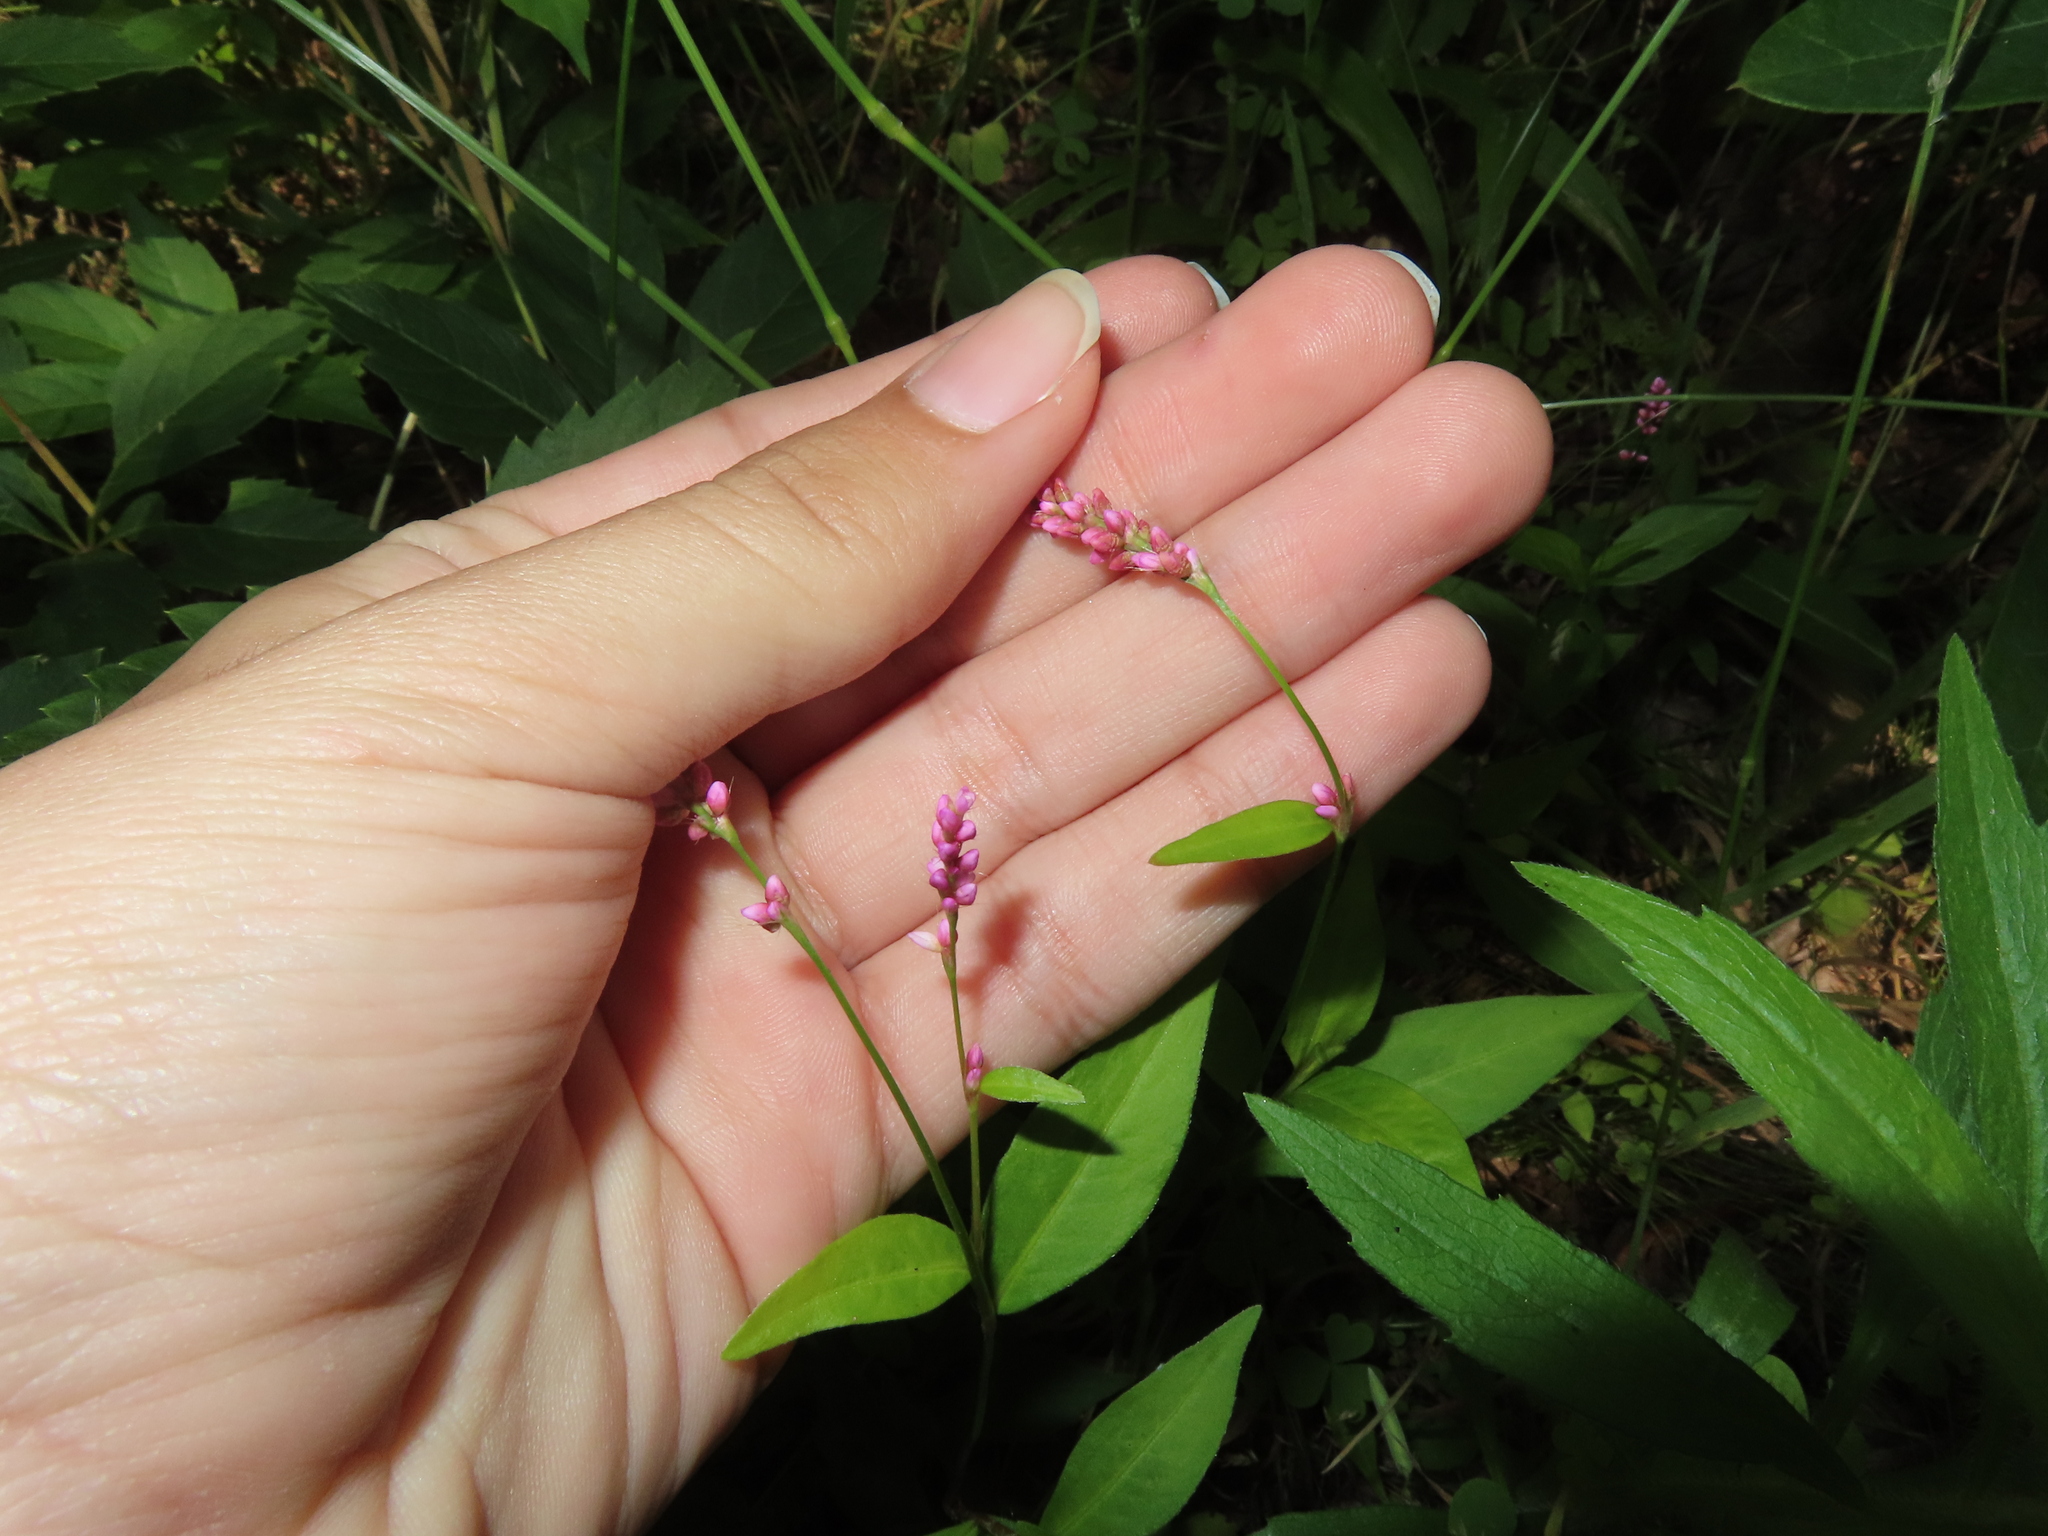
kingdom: Plantae
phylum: Tracheophyta
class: Magnoliopsida
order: Caryophyllales
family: Polygonaceae
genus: Persicaria
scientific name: Persicaria longiseta
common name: Bristly lady's-thumb
